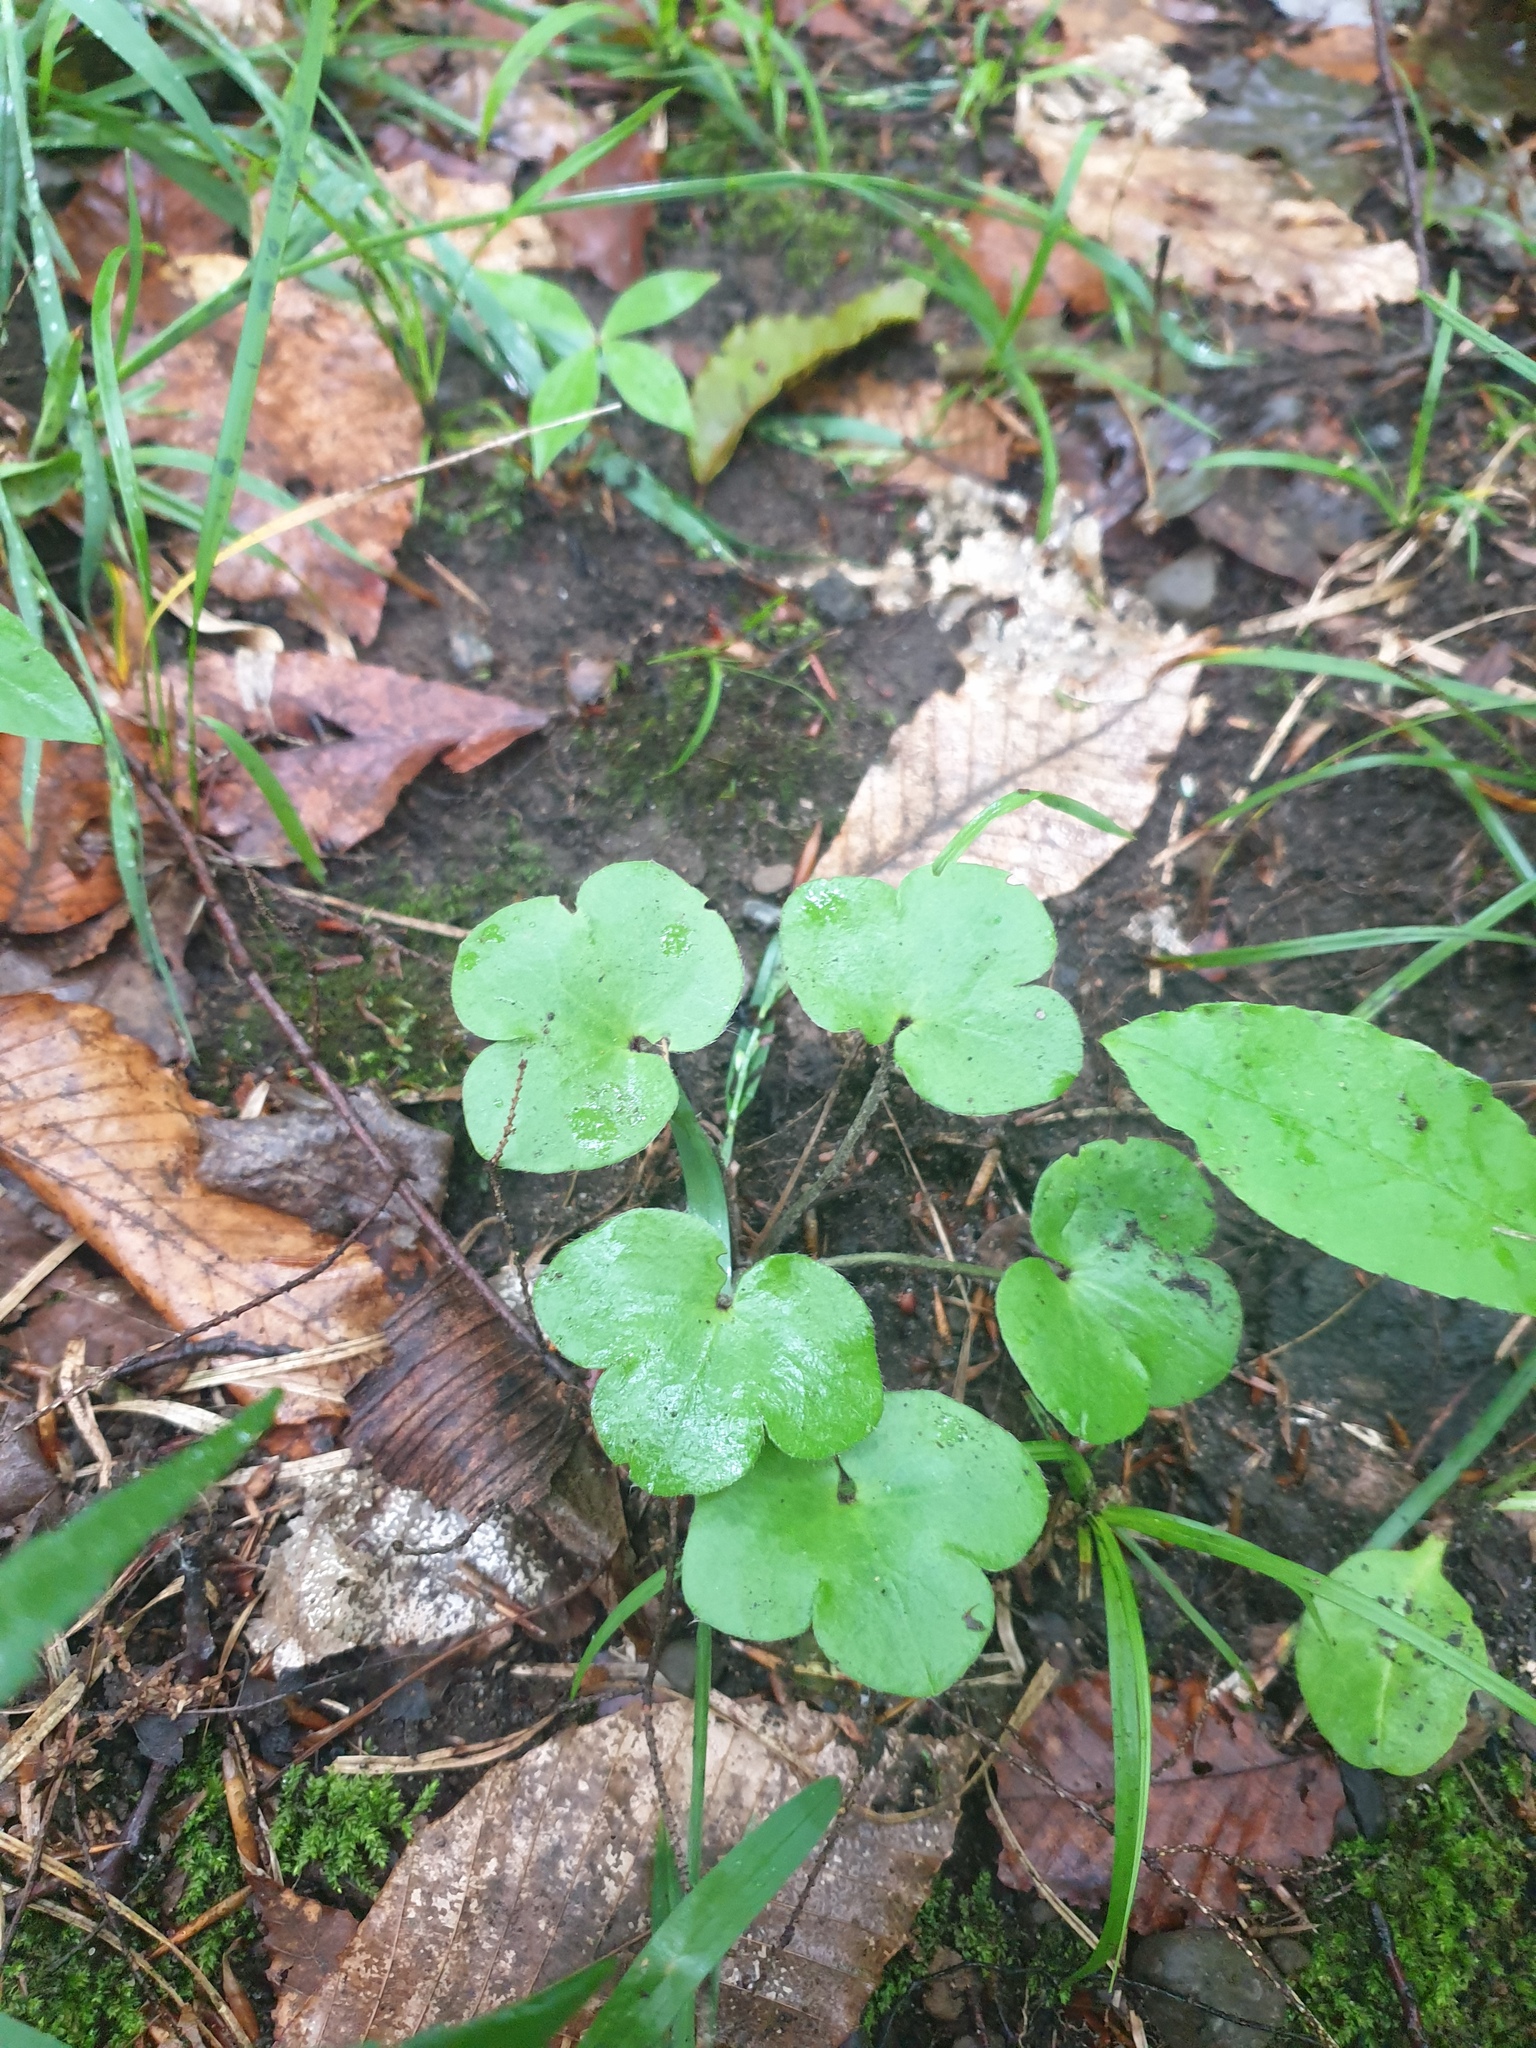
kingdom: Plantae
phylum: Tracheophyta
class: Magnoliopsida
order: Ranunculales
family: Ranunculaceae
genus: Hepatica
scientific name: Hepatica americana
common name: American hepatica
